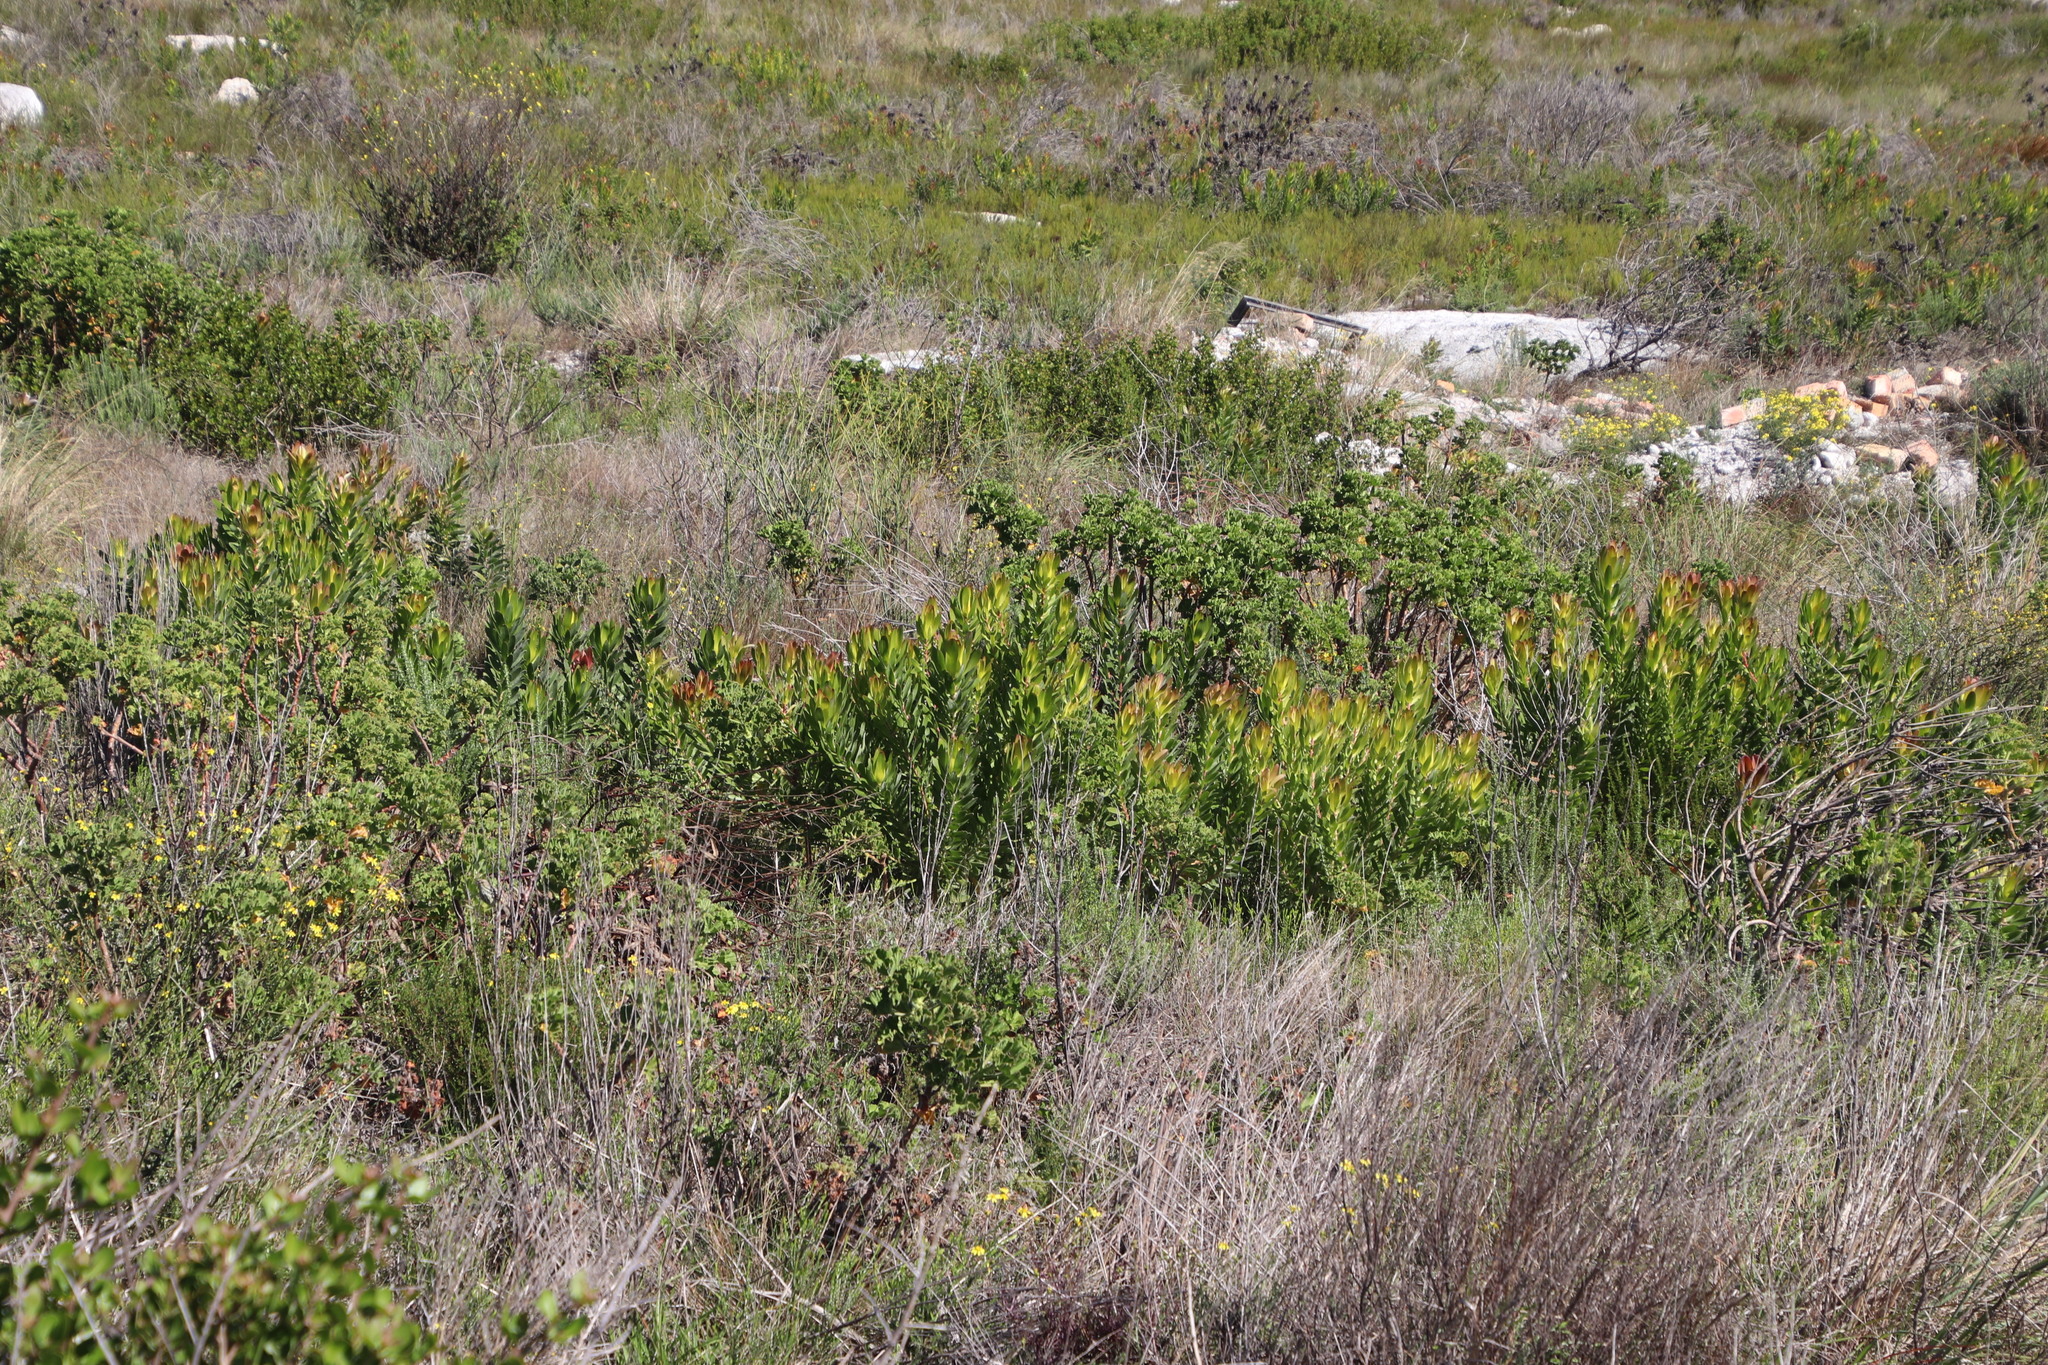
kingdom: Plantae
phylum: Tracheophyta
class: Magnoliopsida
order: Proteales
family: Proteaceae
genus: Leucadendron
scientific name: Leucadendron laureolum
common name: Golden sunshinebush
